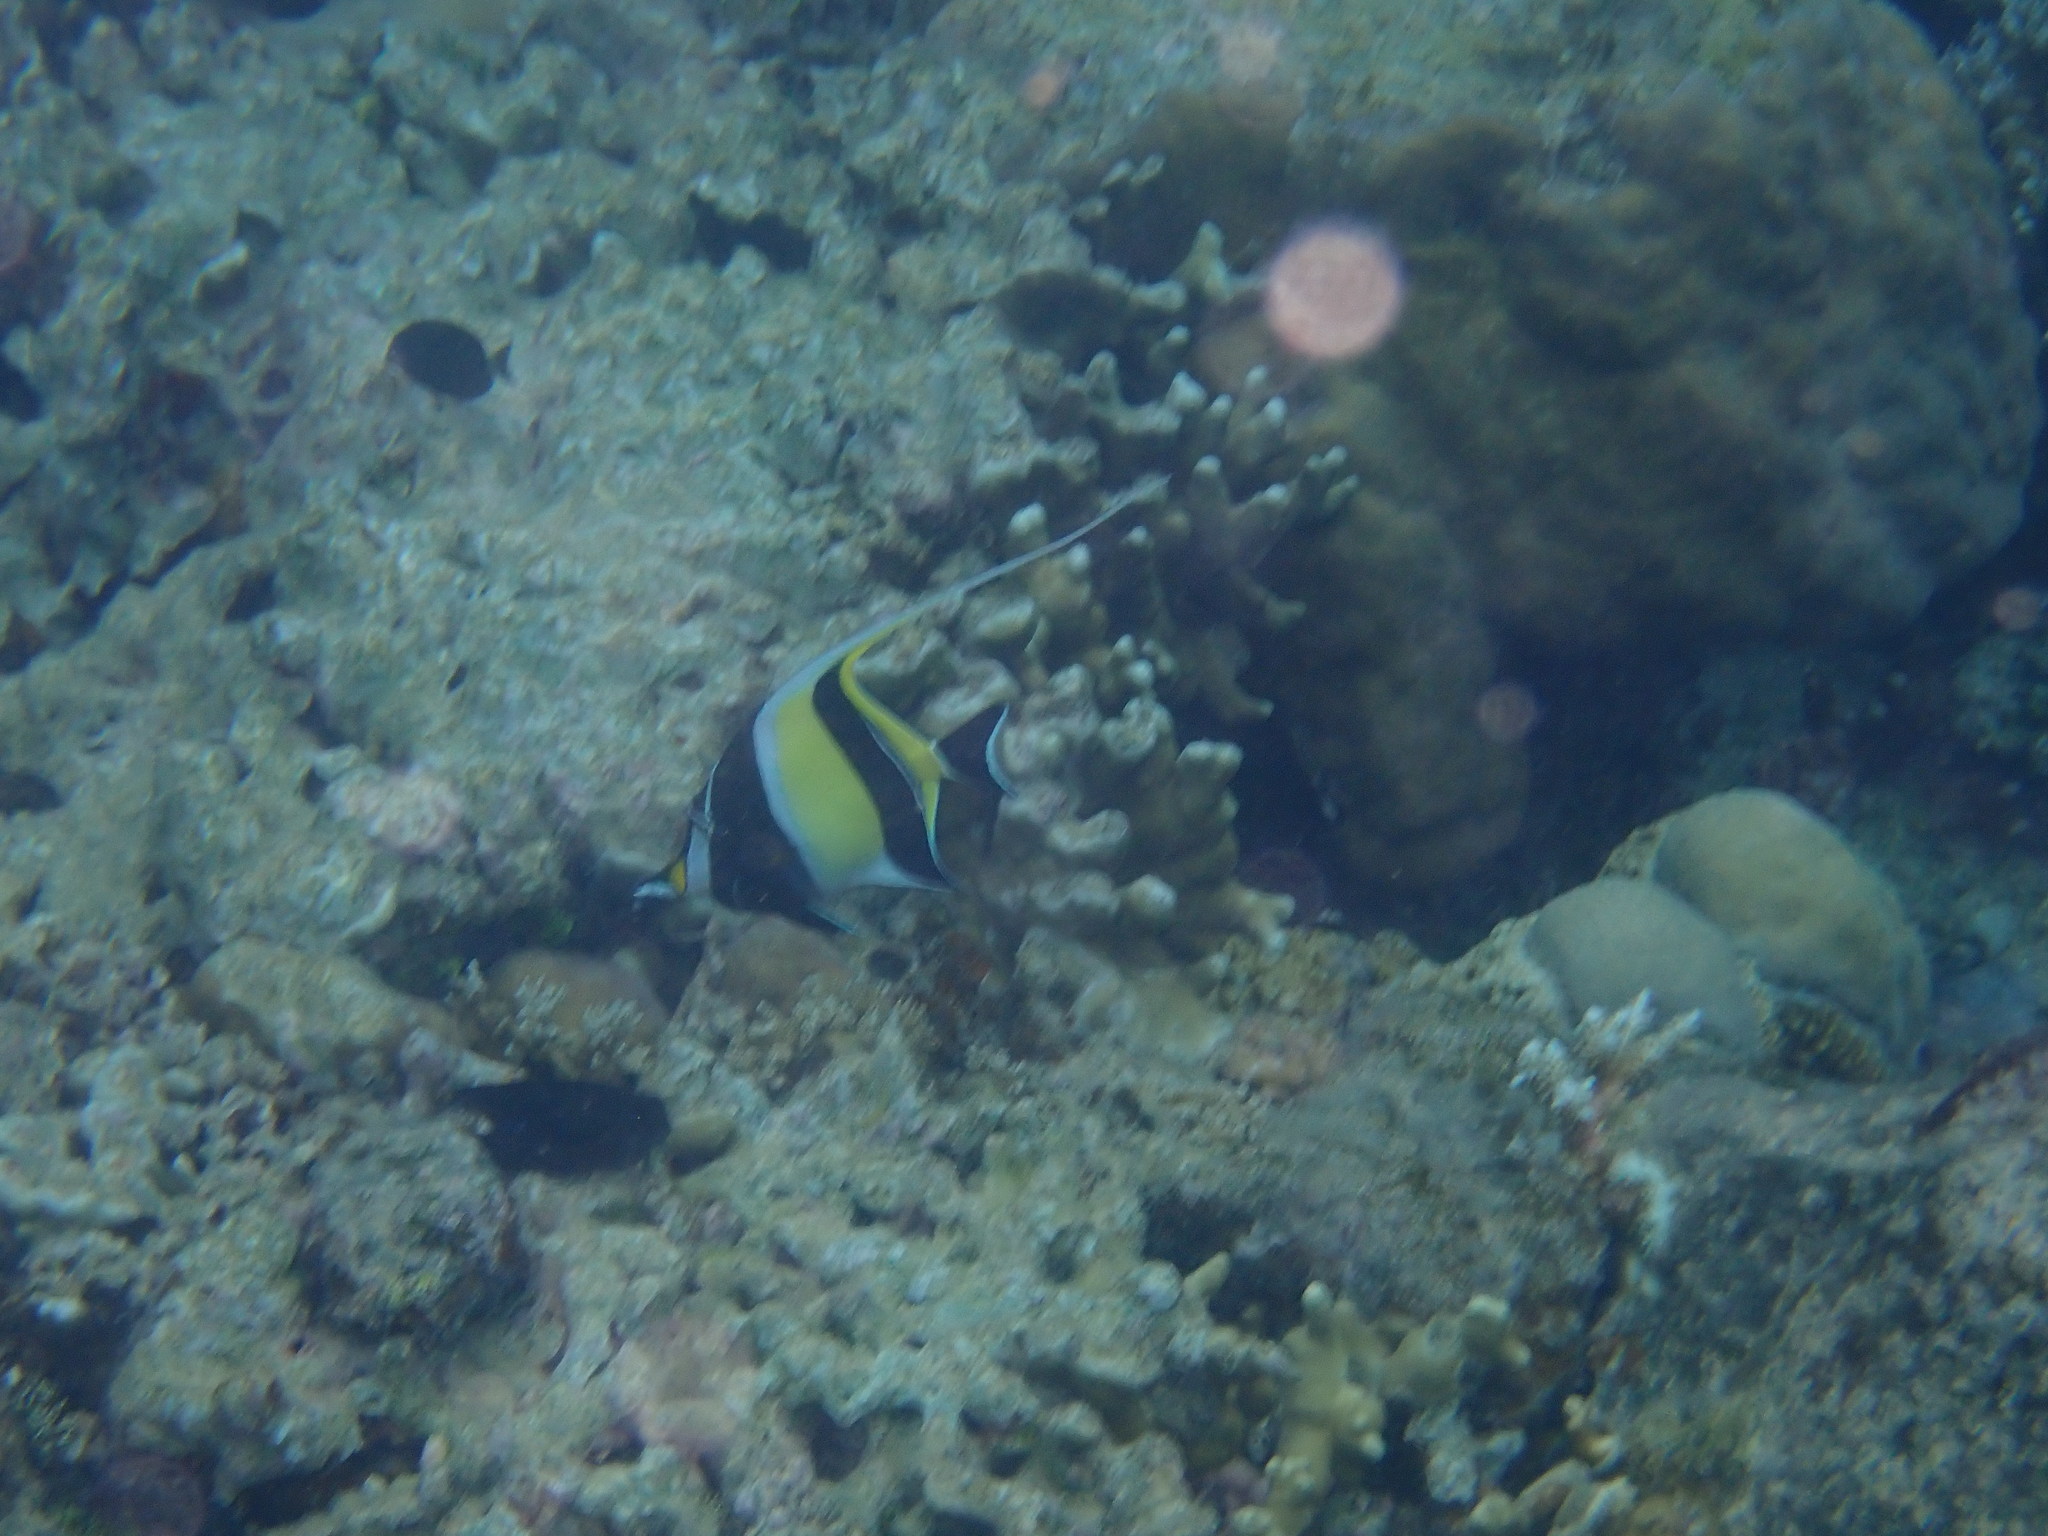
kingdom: Animalia
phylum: Chordata
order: Perciformes
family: Zanclidae
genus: Zanclus
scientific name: Zanclus cornutus
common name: Moorish idol
